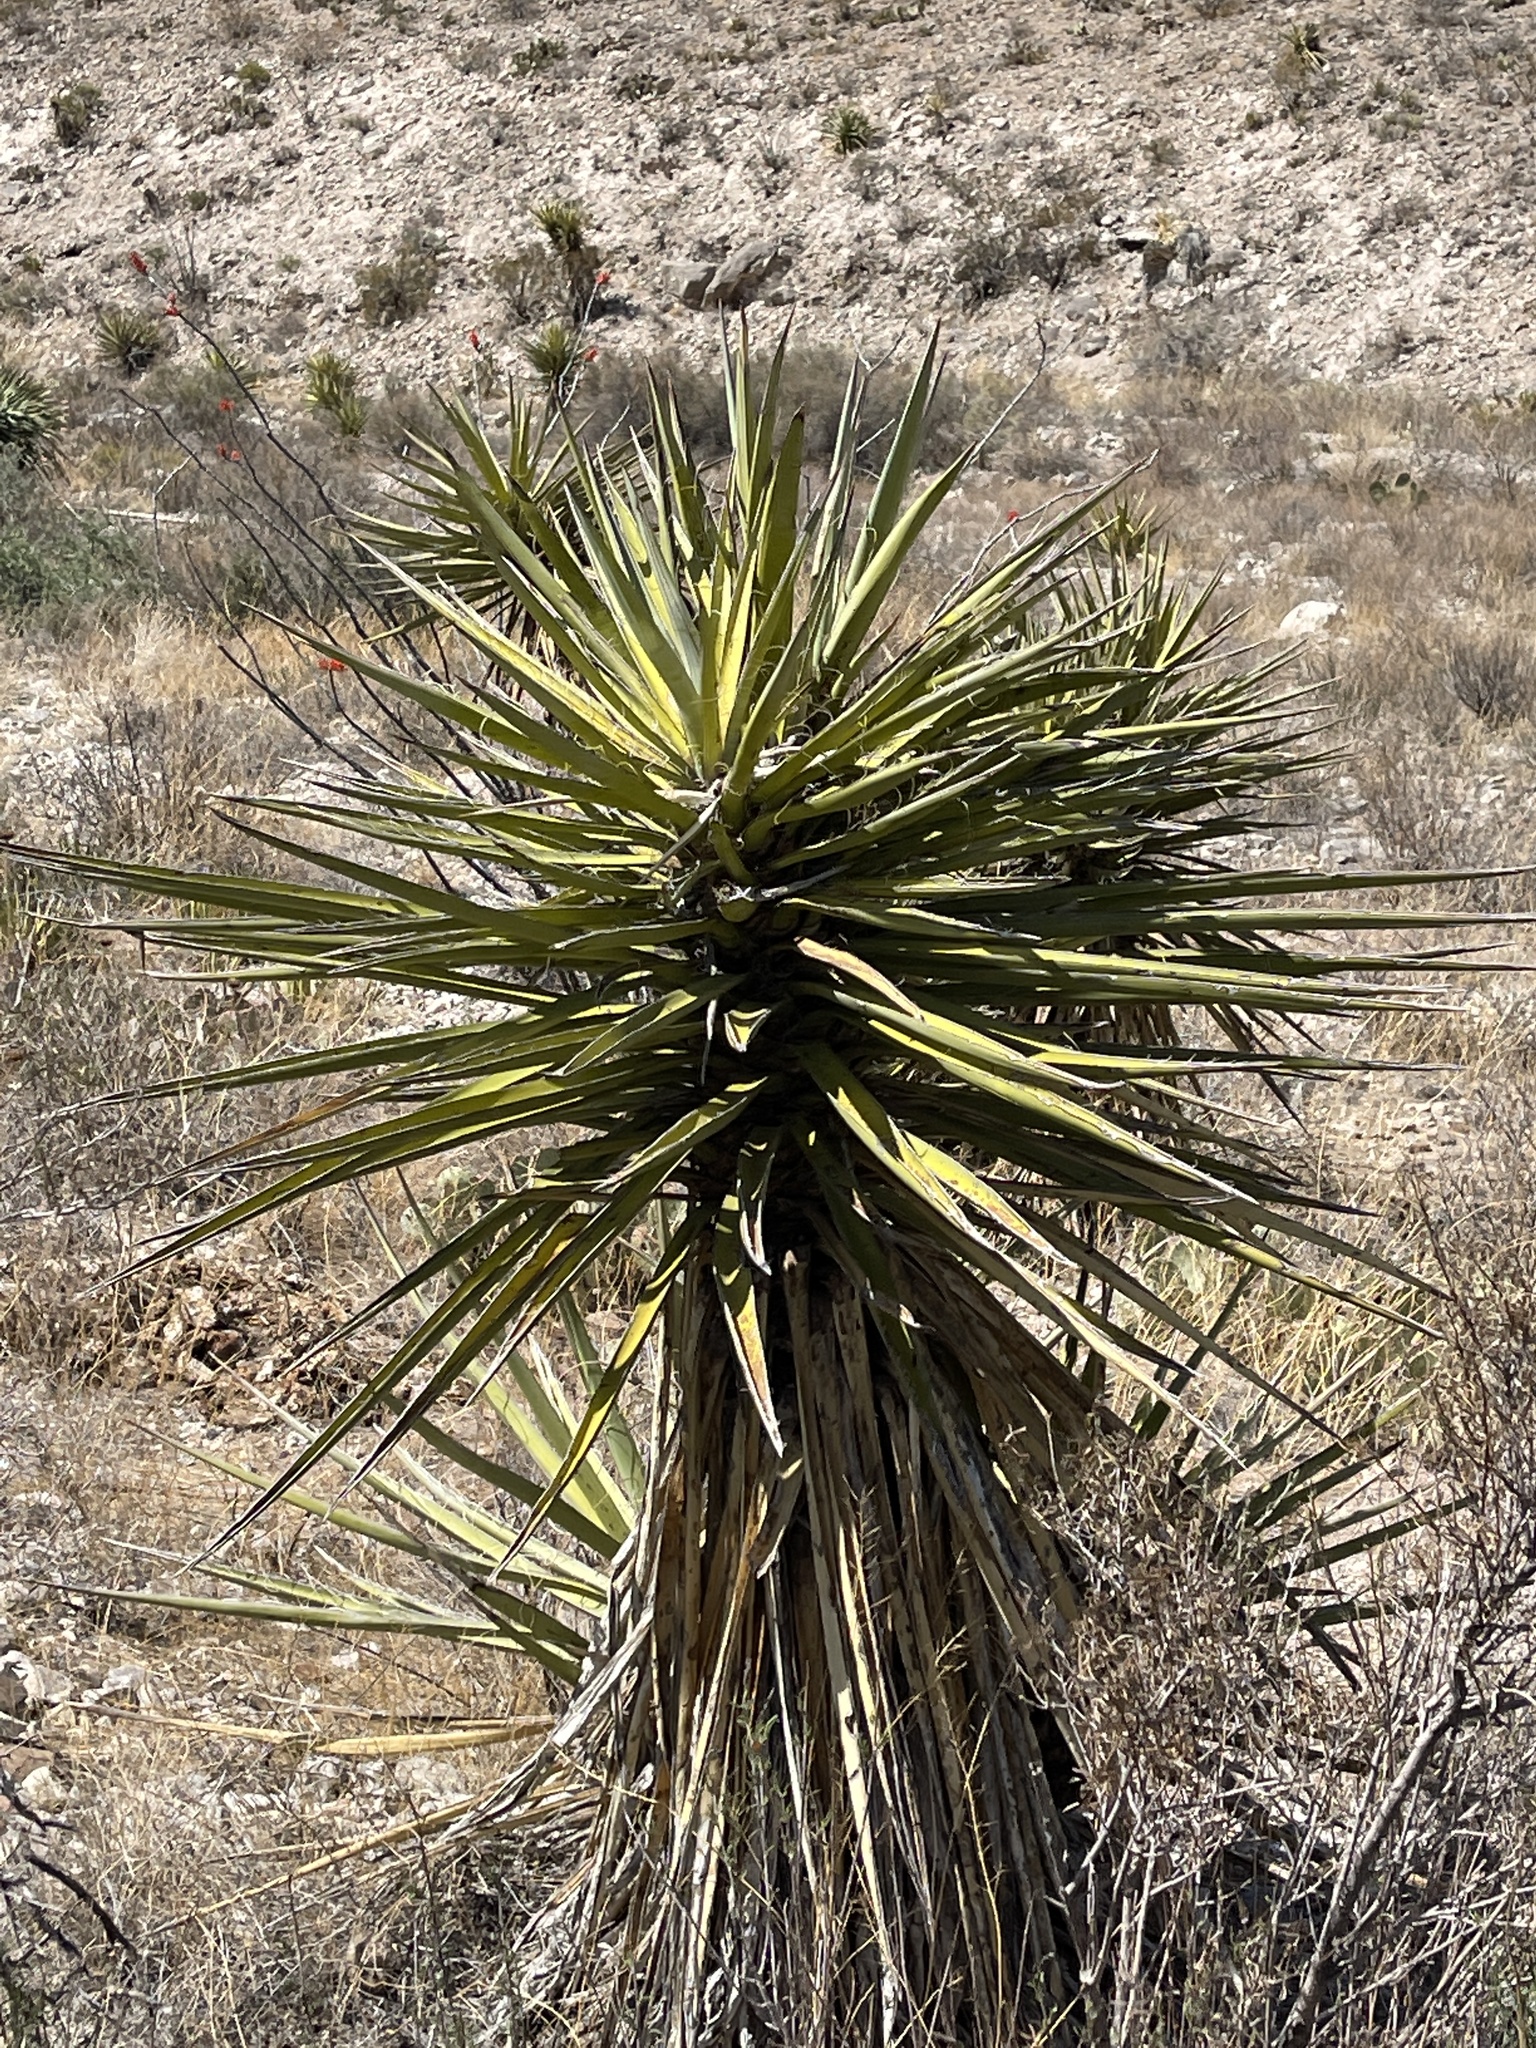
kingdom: Plantae
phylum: Tracheophyta
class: Liliopsida
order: Asparagales
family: Asparagaceae
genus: Yucca
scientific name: Yucca treculiana
